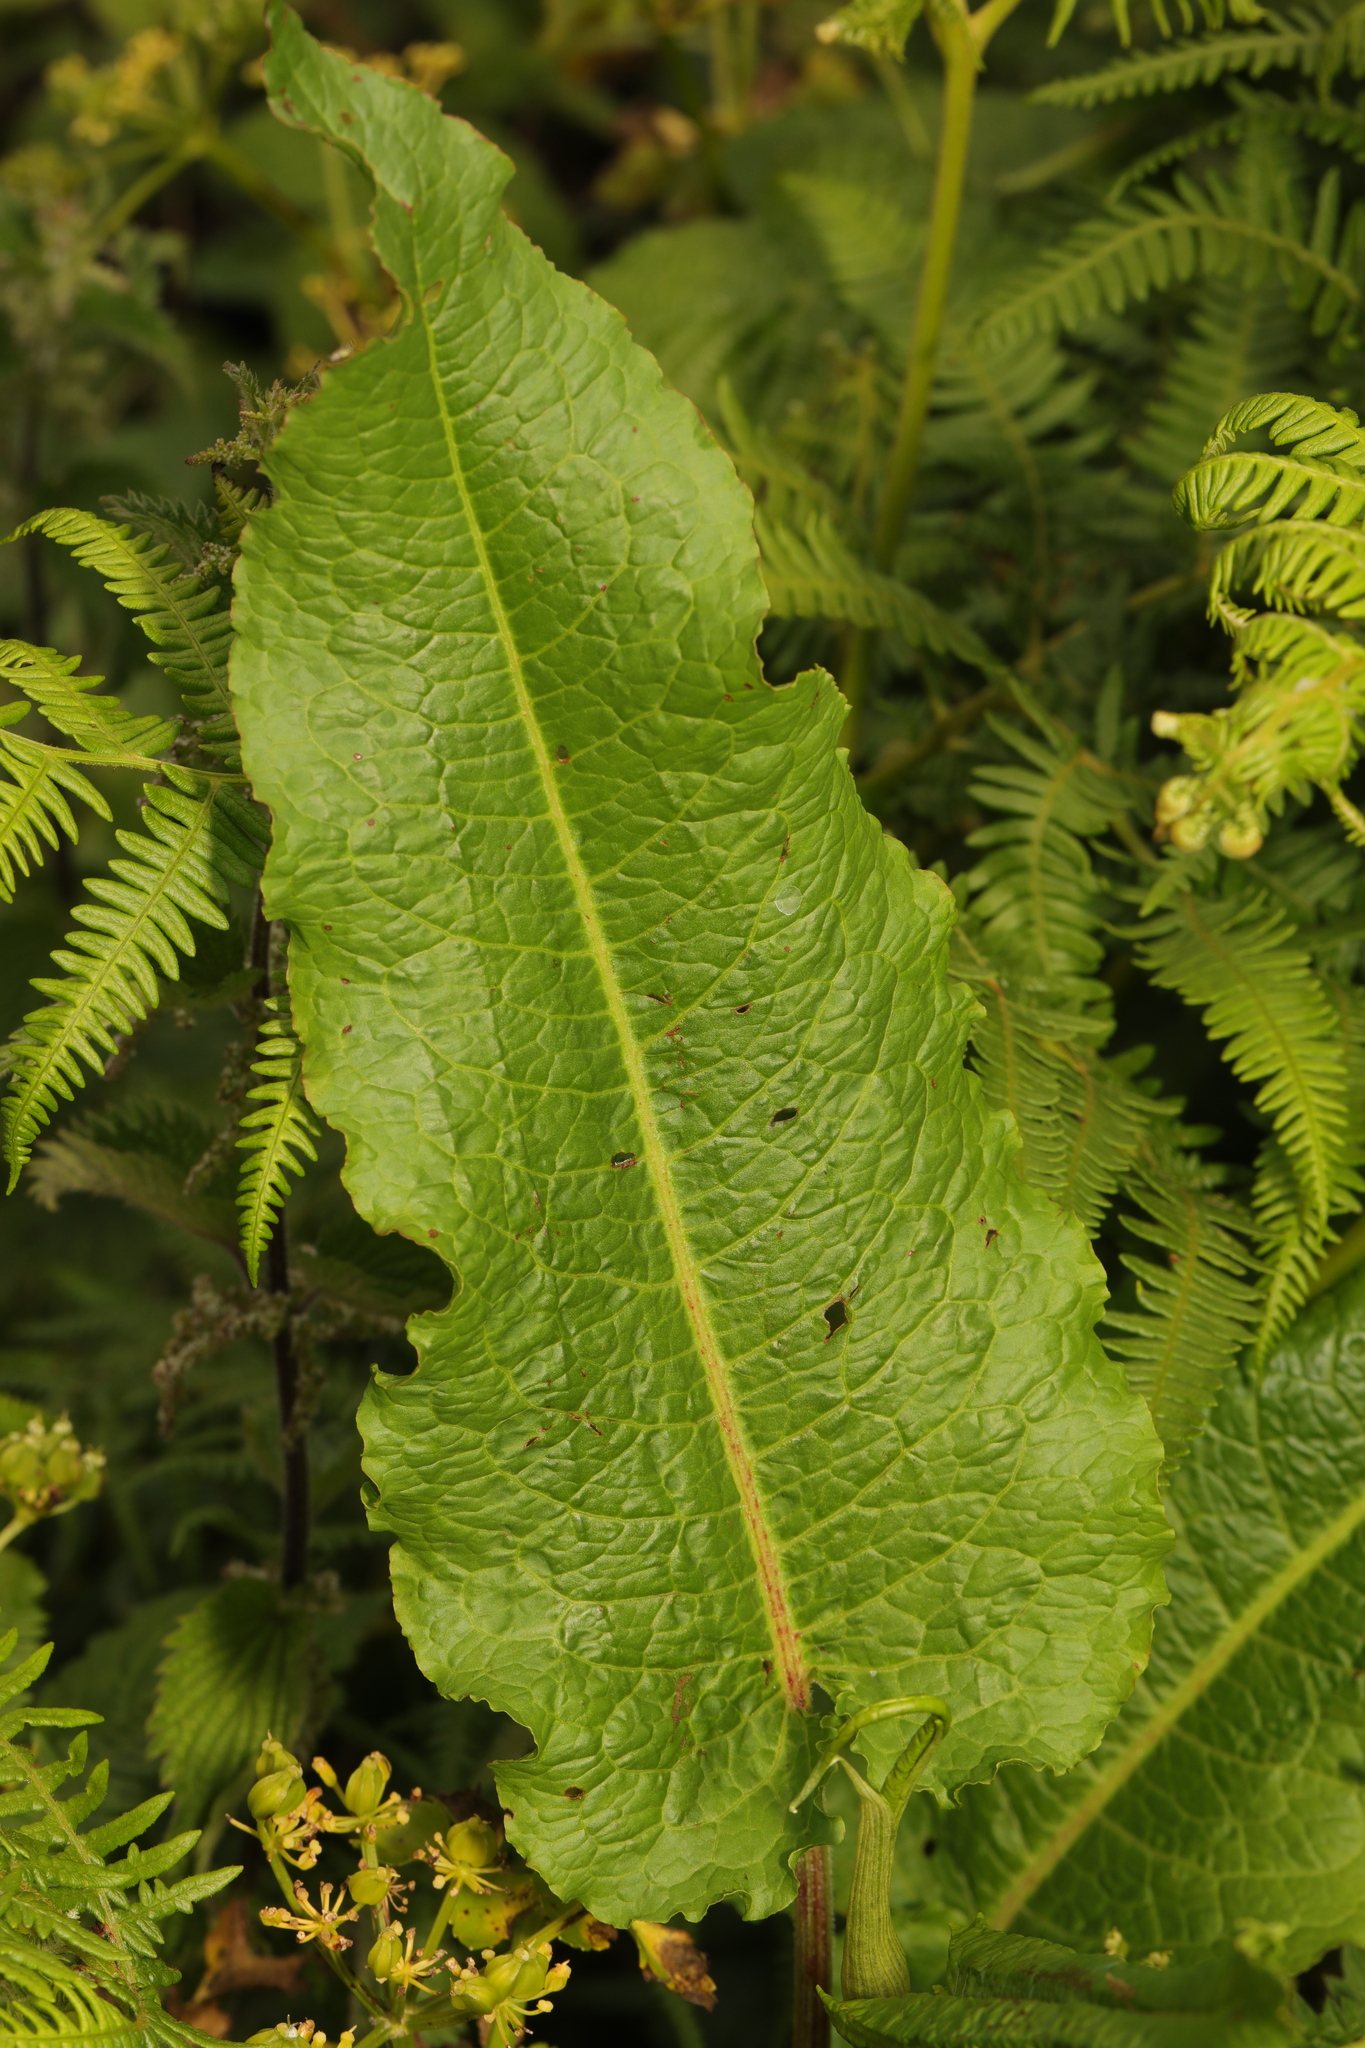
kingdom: Plantae
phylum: Tracheophyta
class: Magnoliopsida
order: Caryophyllales
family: Polygonaceae
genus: Rumex
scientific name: Rumex obtusifolius
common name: Bitter dock
